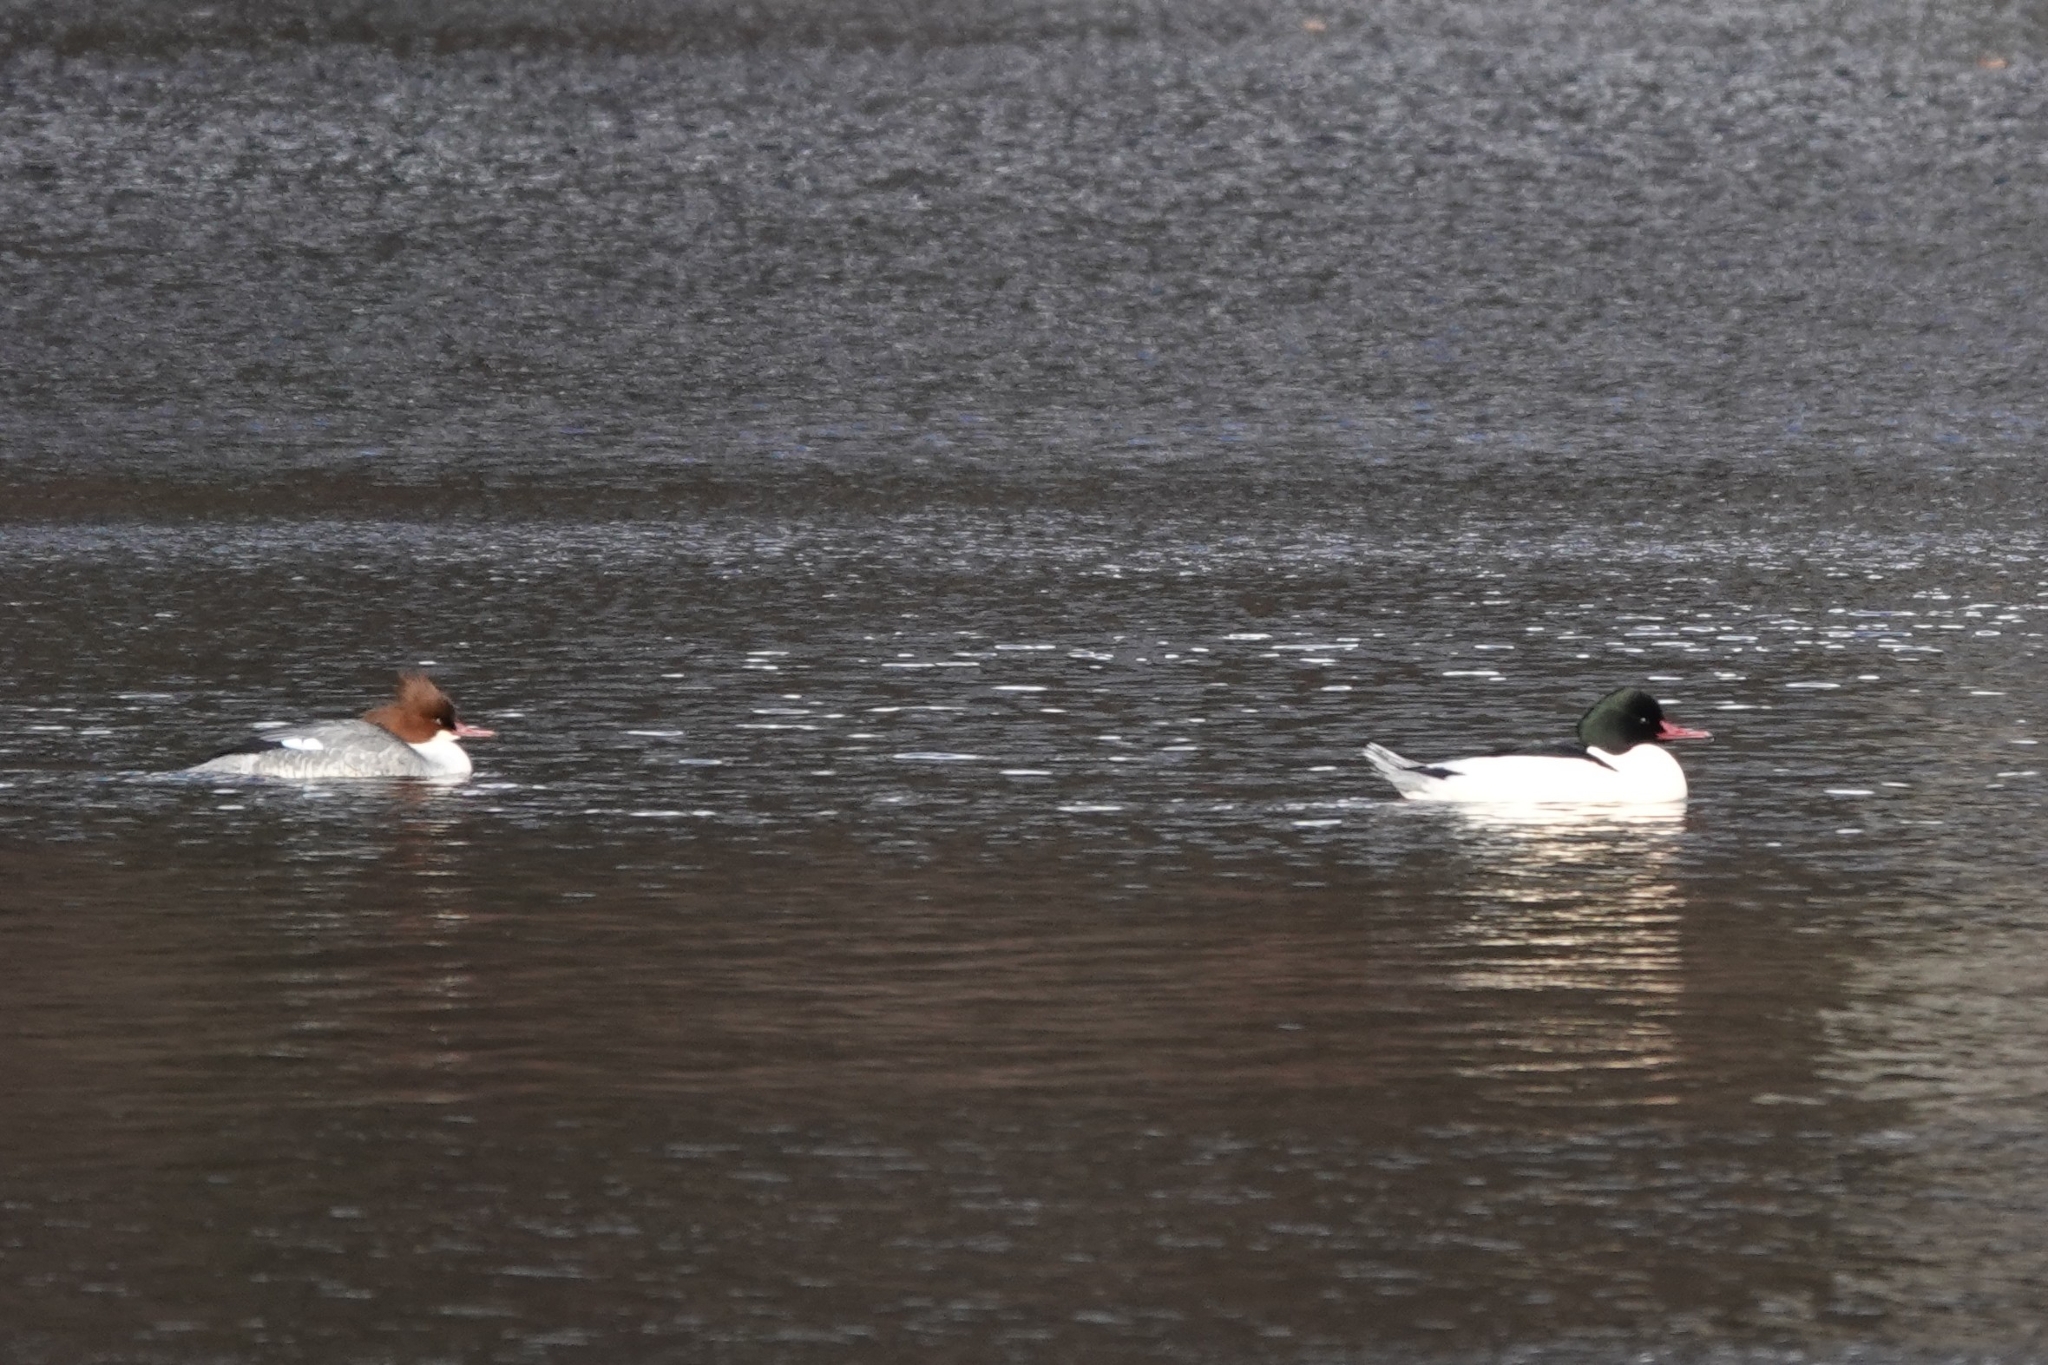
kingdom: Animalia
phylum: Chordata
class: Aves
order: Anseriformes
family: Anatidae
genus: Mergus
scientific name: Mergus merganser
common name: Common merganser
